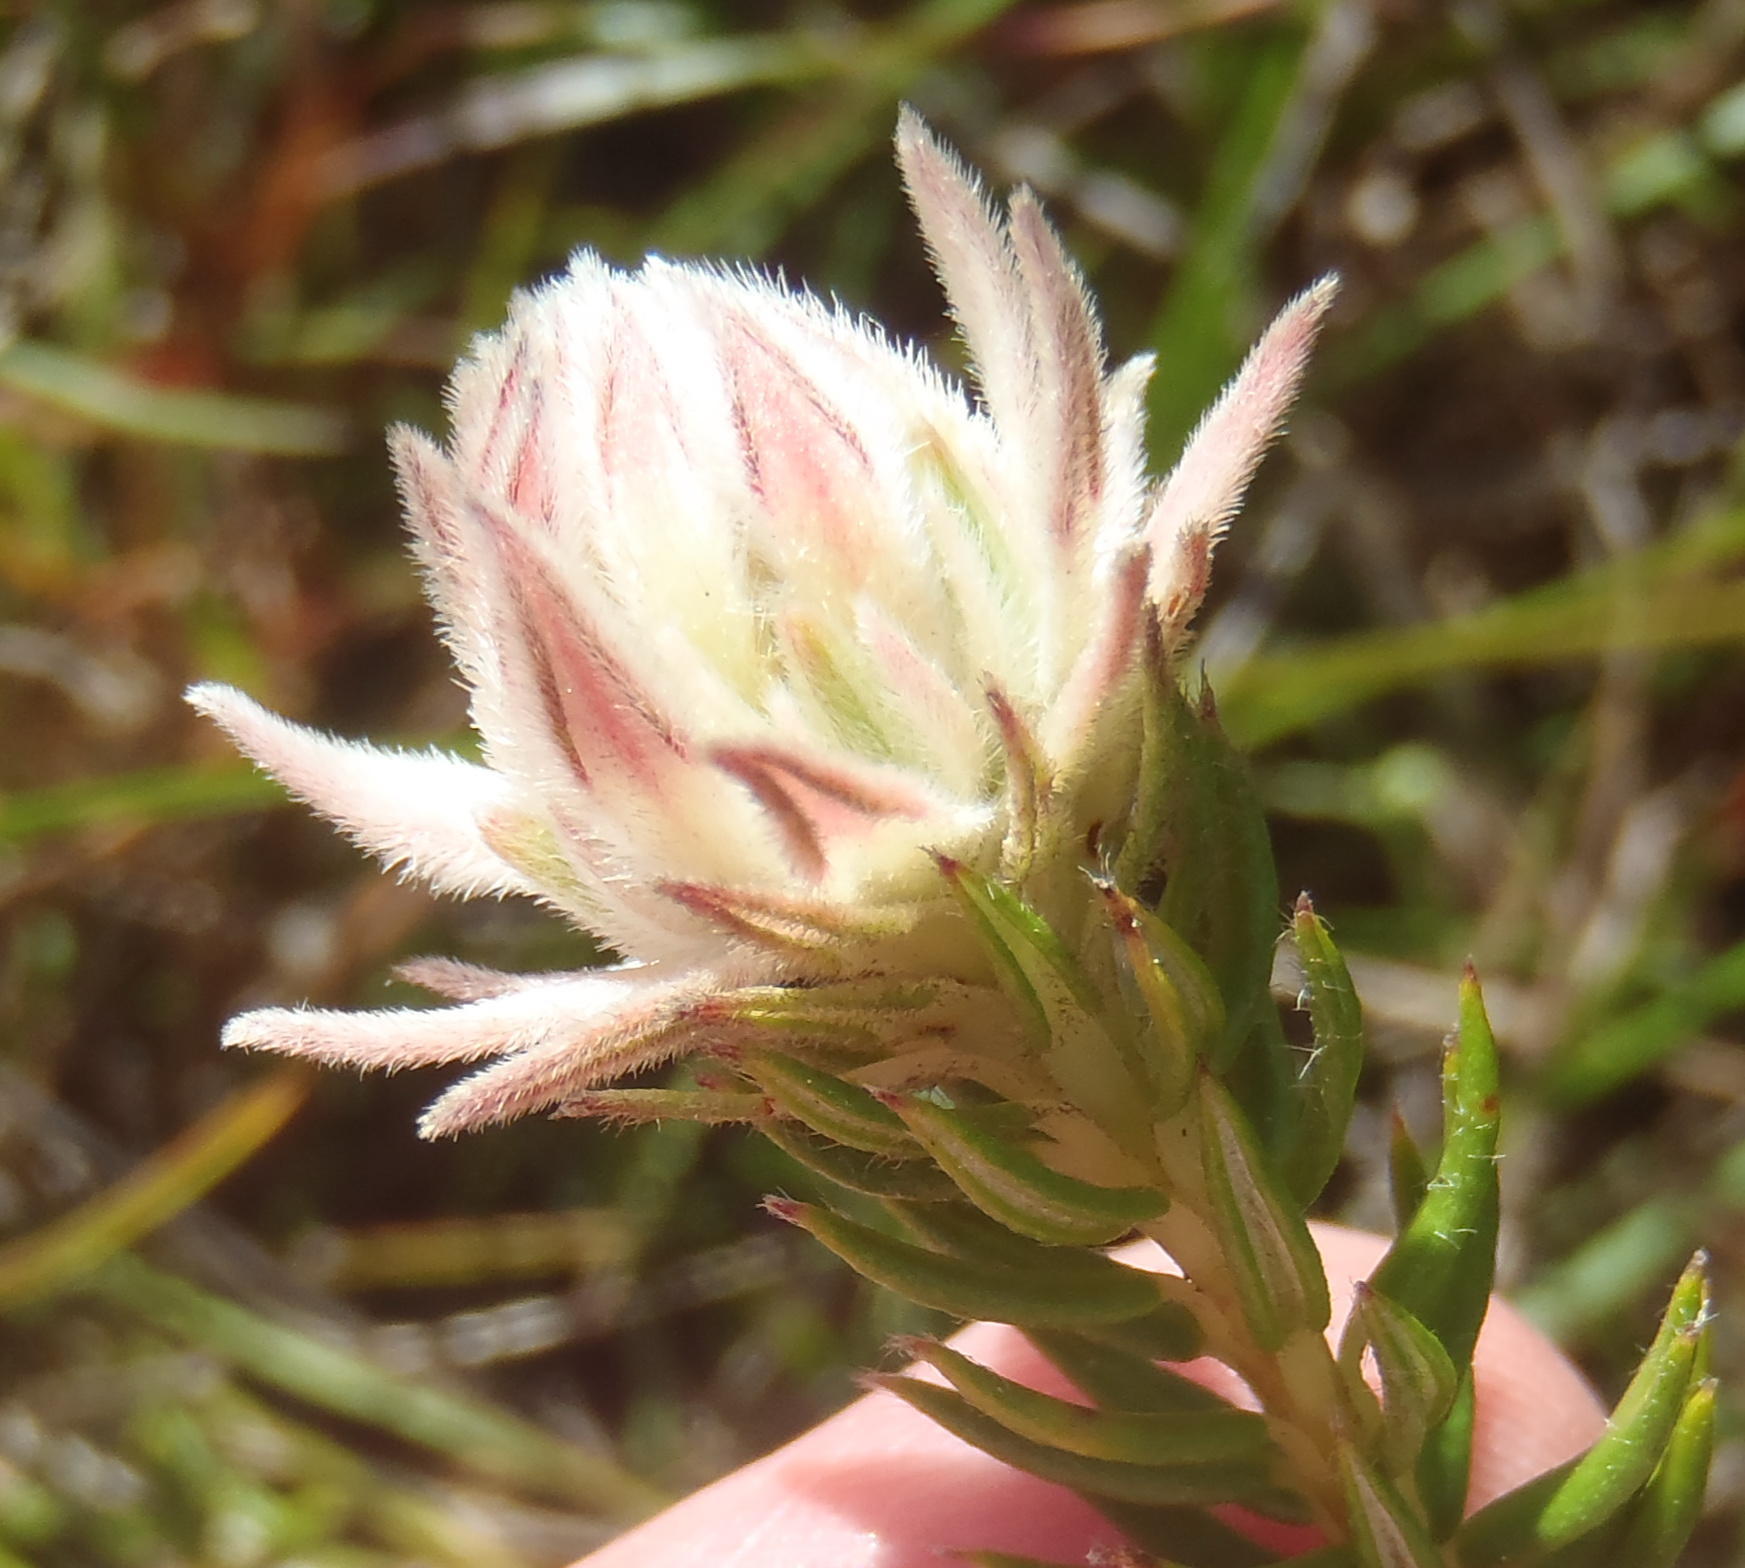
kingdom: Plantae
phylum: Tracheophyta
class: Magnoliopsida
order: Rosales
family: Rhamnaceae
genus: Phylica
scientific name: Phylica dodii
